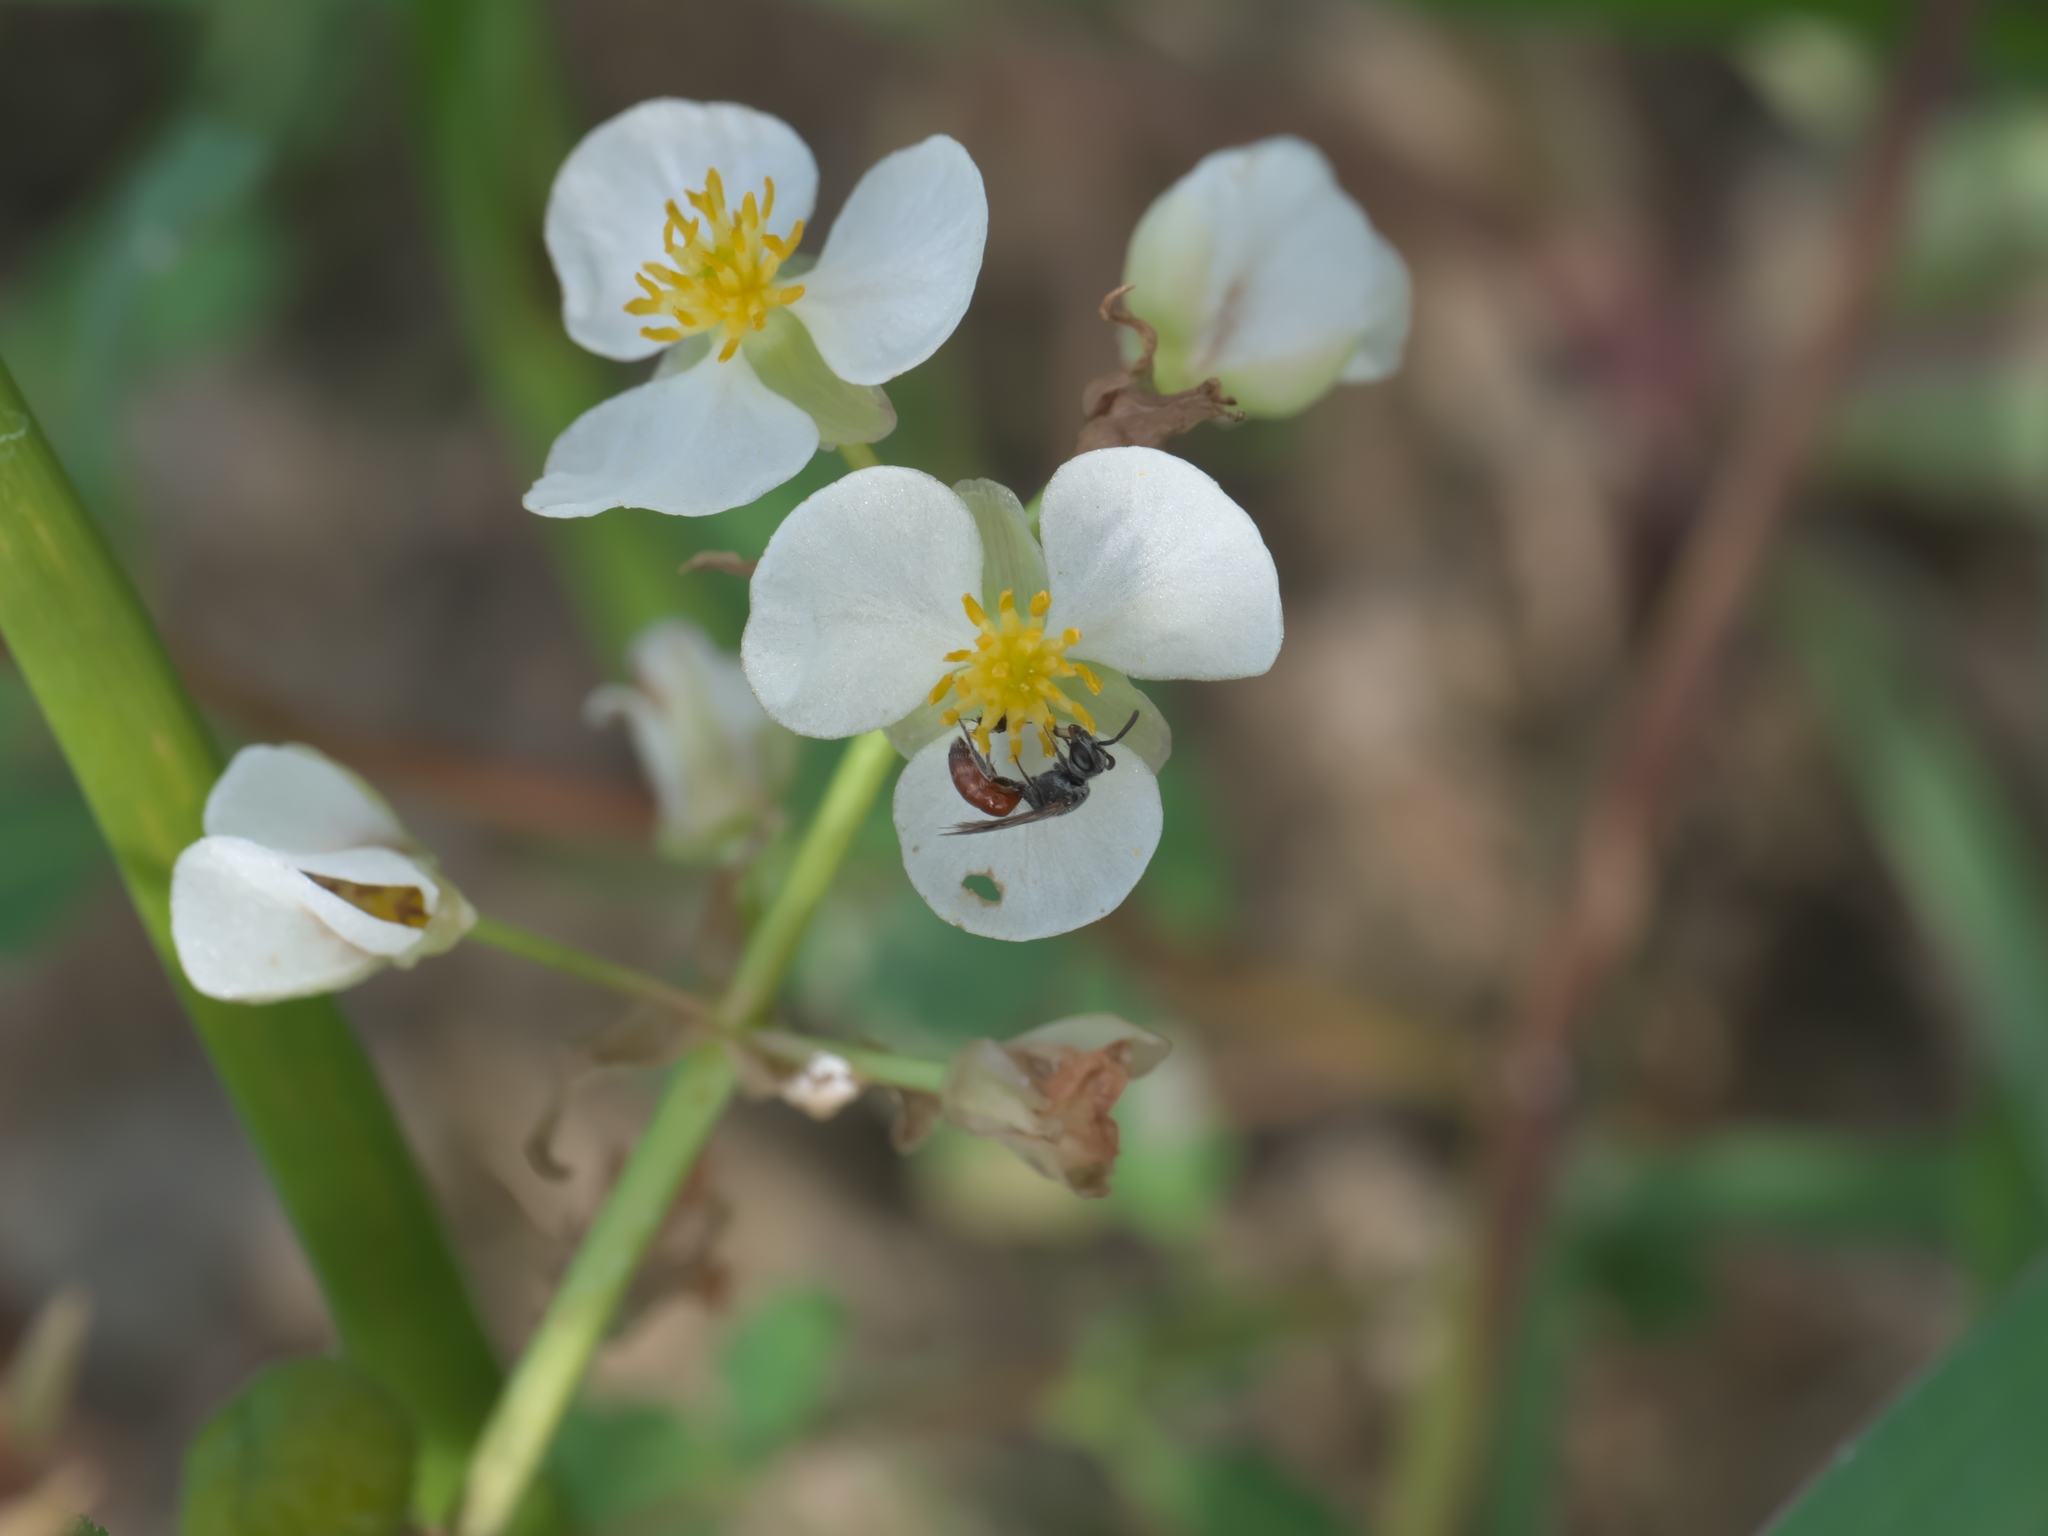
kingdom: Plantae
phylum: Tracheophyta
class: Liliopsida
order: Alismatales
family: Alismataceae
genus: Sagittaria
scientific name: Sagittaria cuneata
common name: Northern arrowhead
